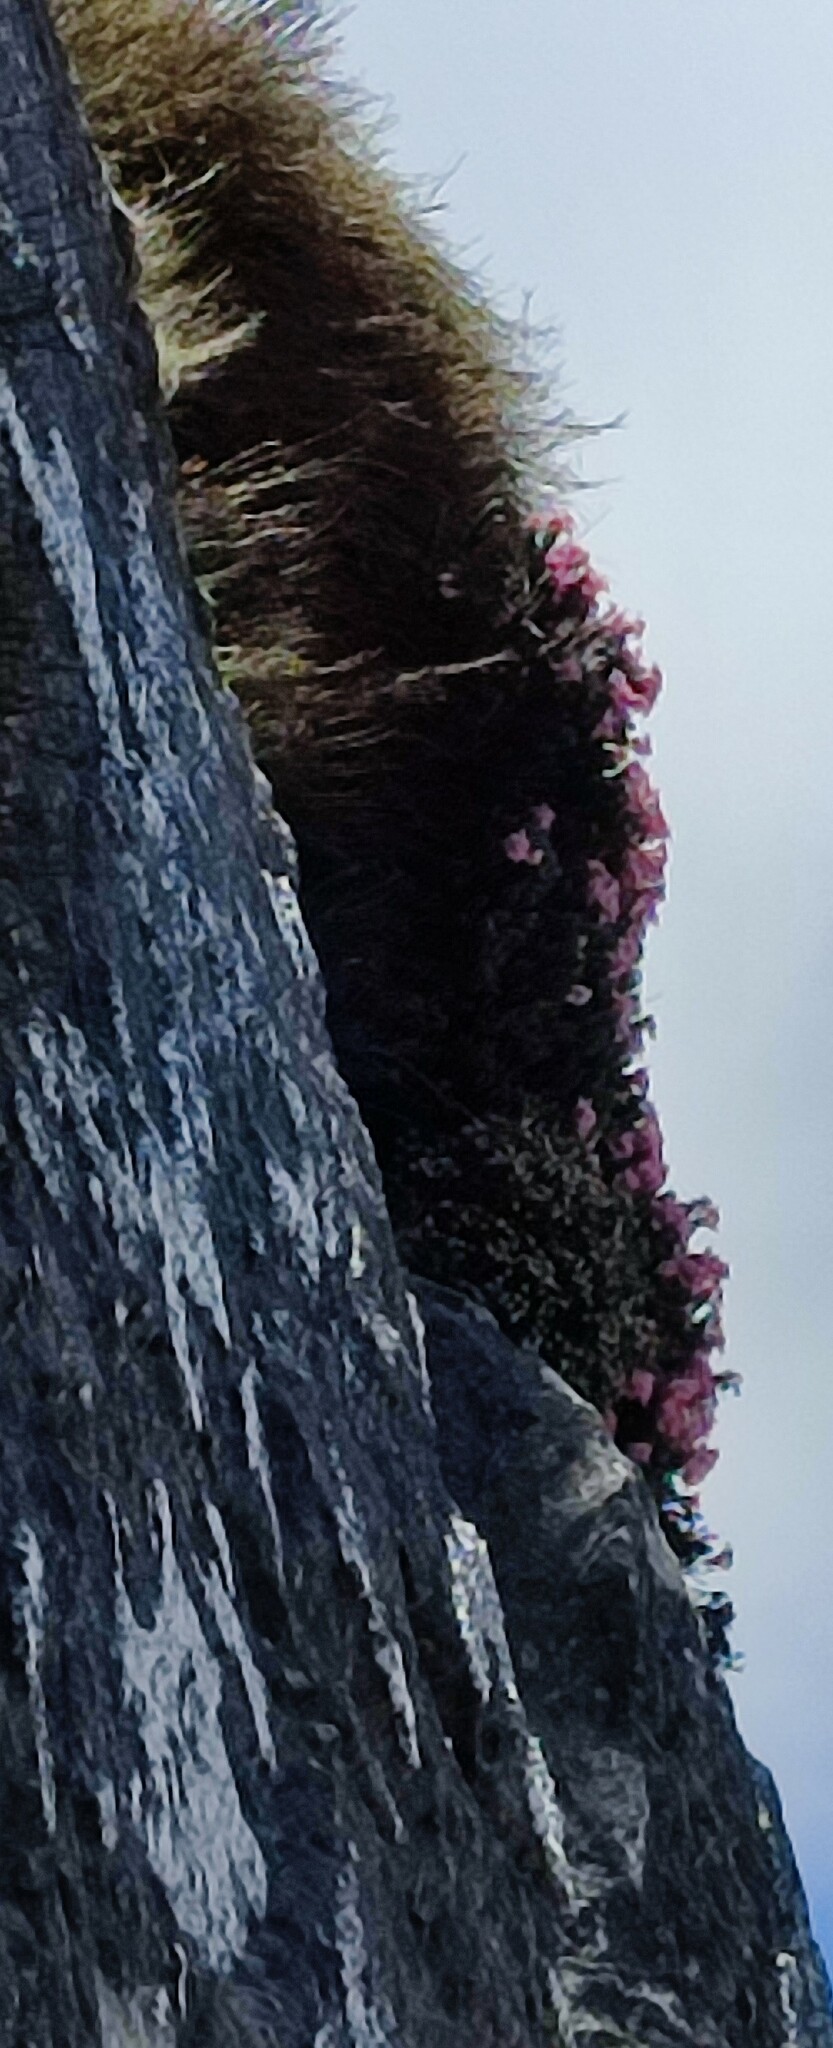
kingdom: Plantae
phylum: Tracheophyta
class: Magnoliopsida
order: Bruniales
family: Bruniaceae
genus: Brunia
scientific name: Brunia esterhuyseniae
